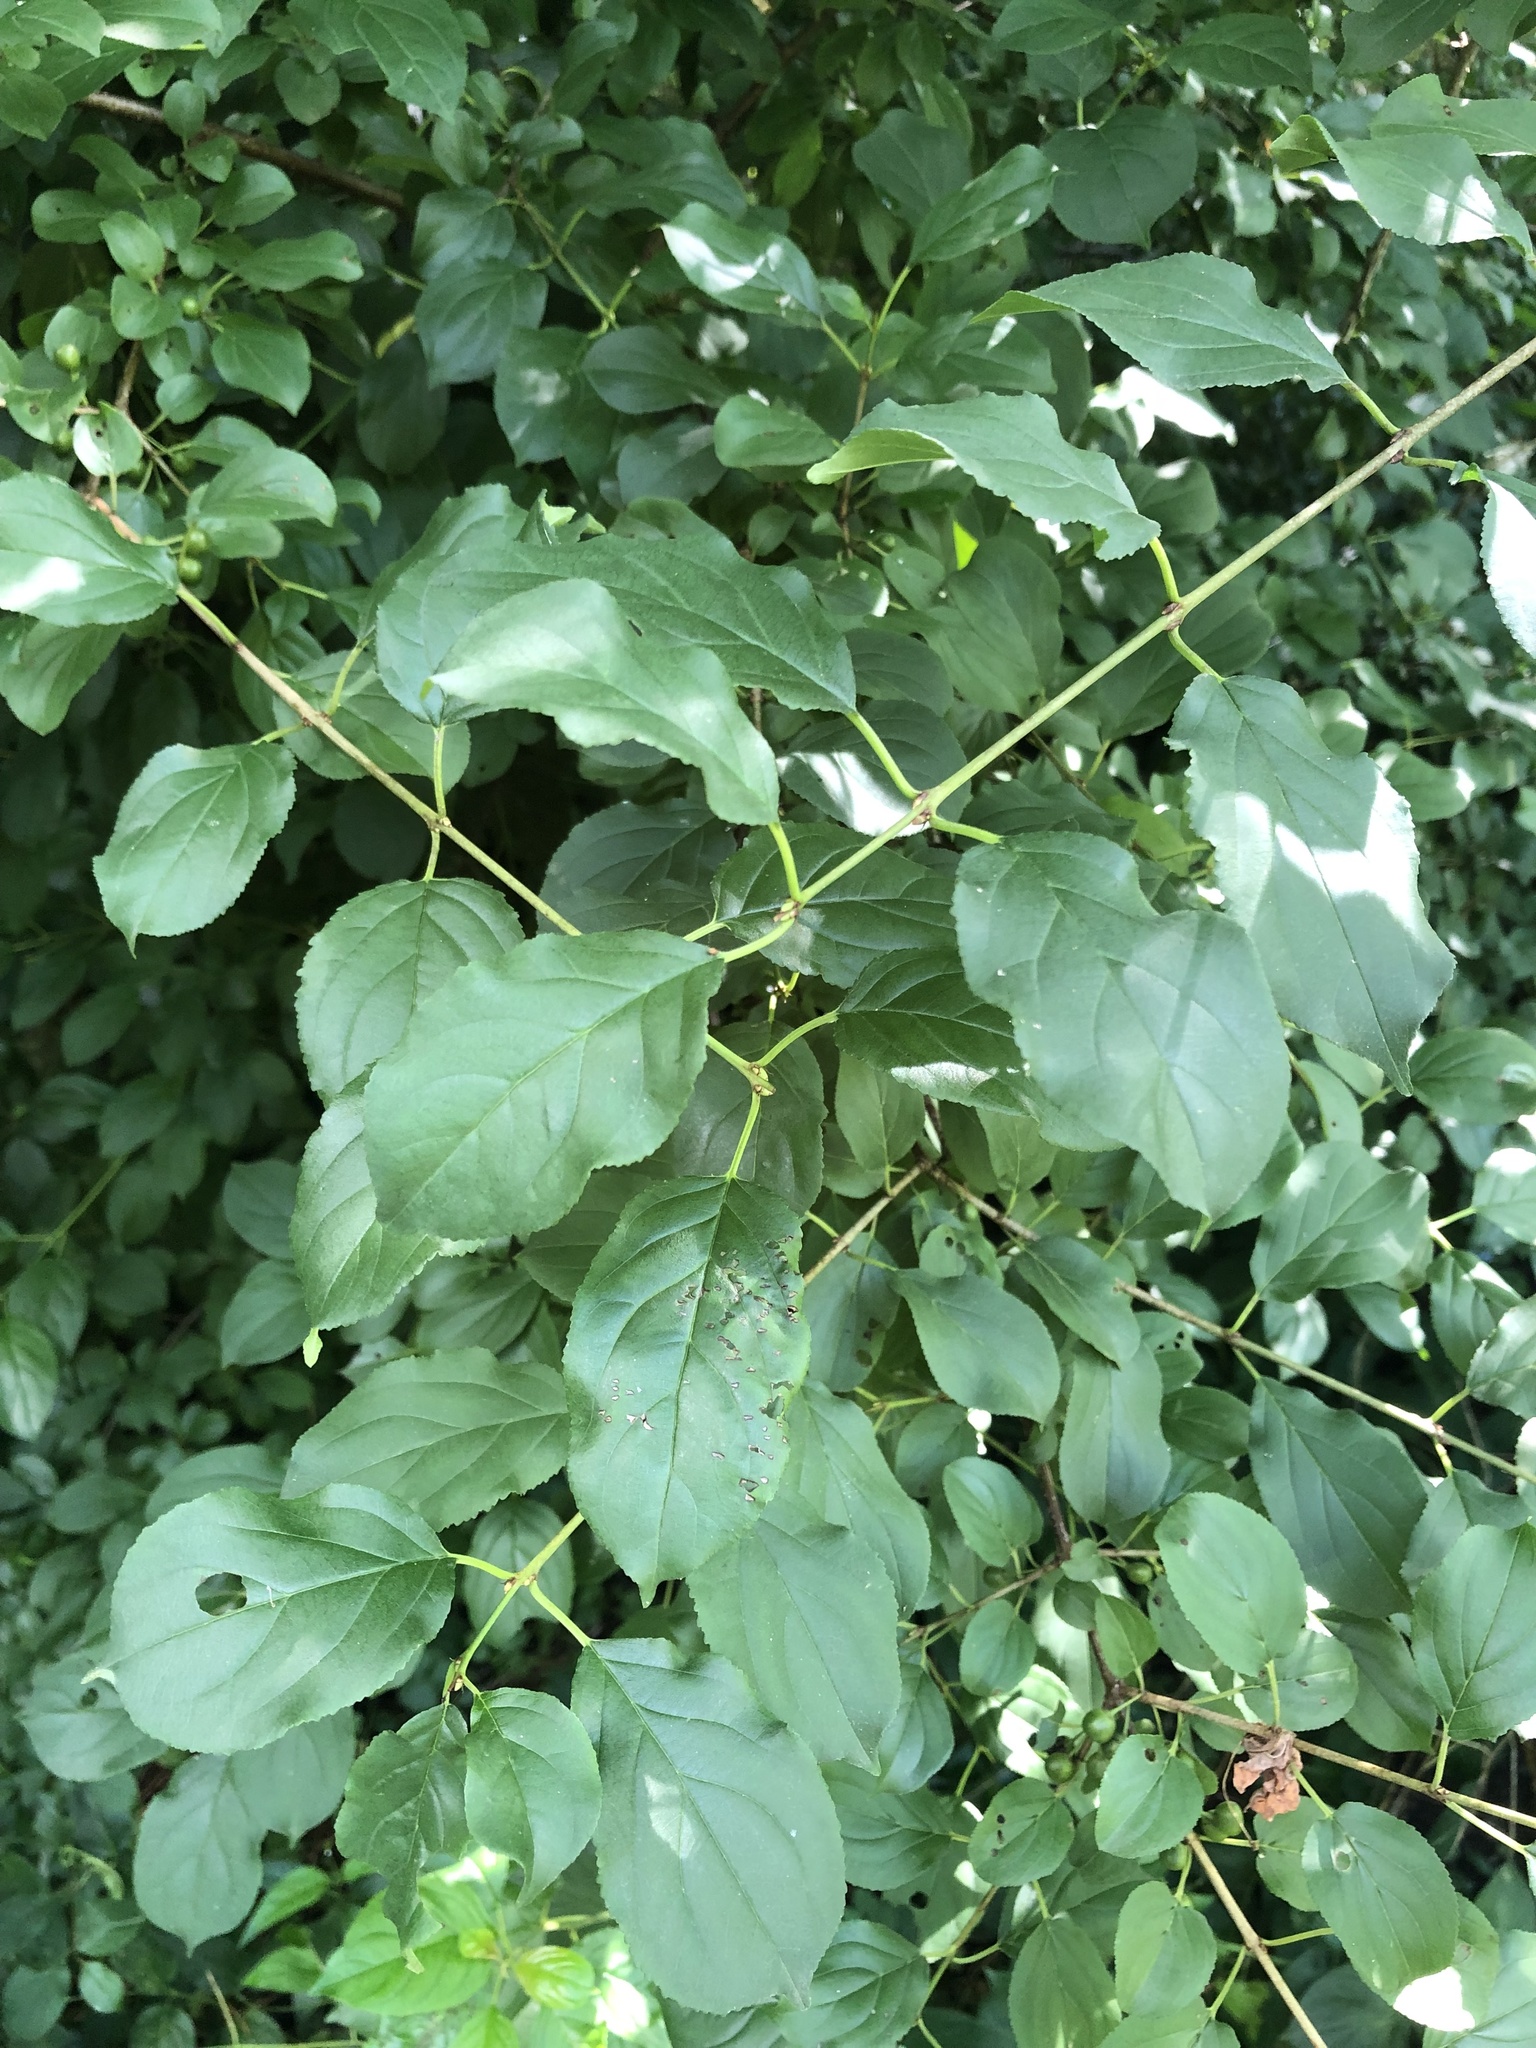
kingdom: Plantae
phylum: Tracheophyta
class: Magnoliopsida
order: Rosales
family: Rhamnaceae
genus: Rhamnus
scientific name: Rhamnus cathartica
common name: Common buckthorn
